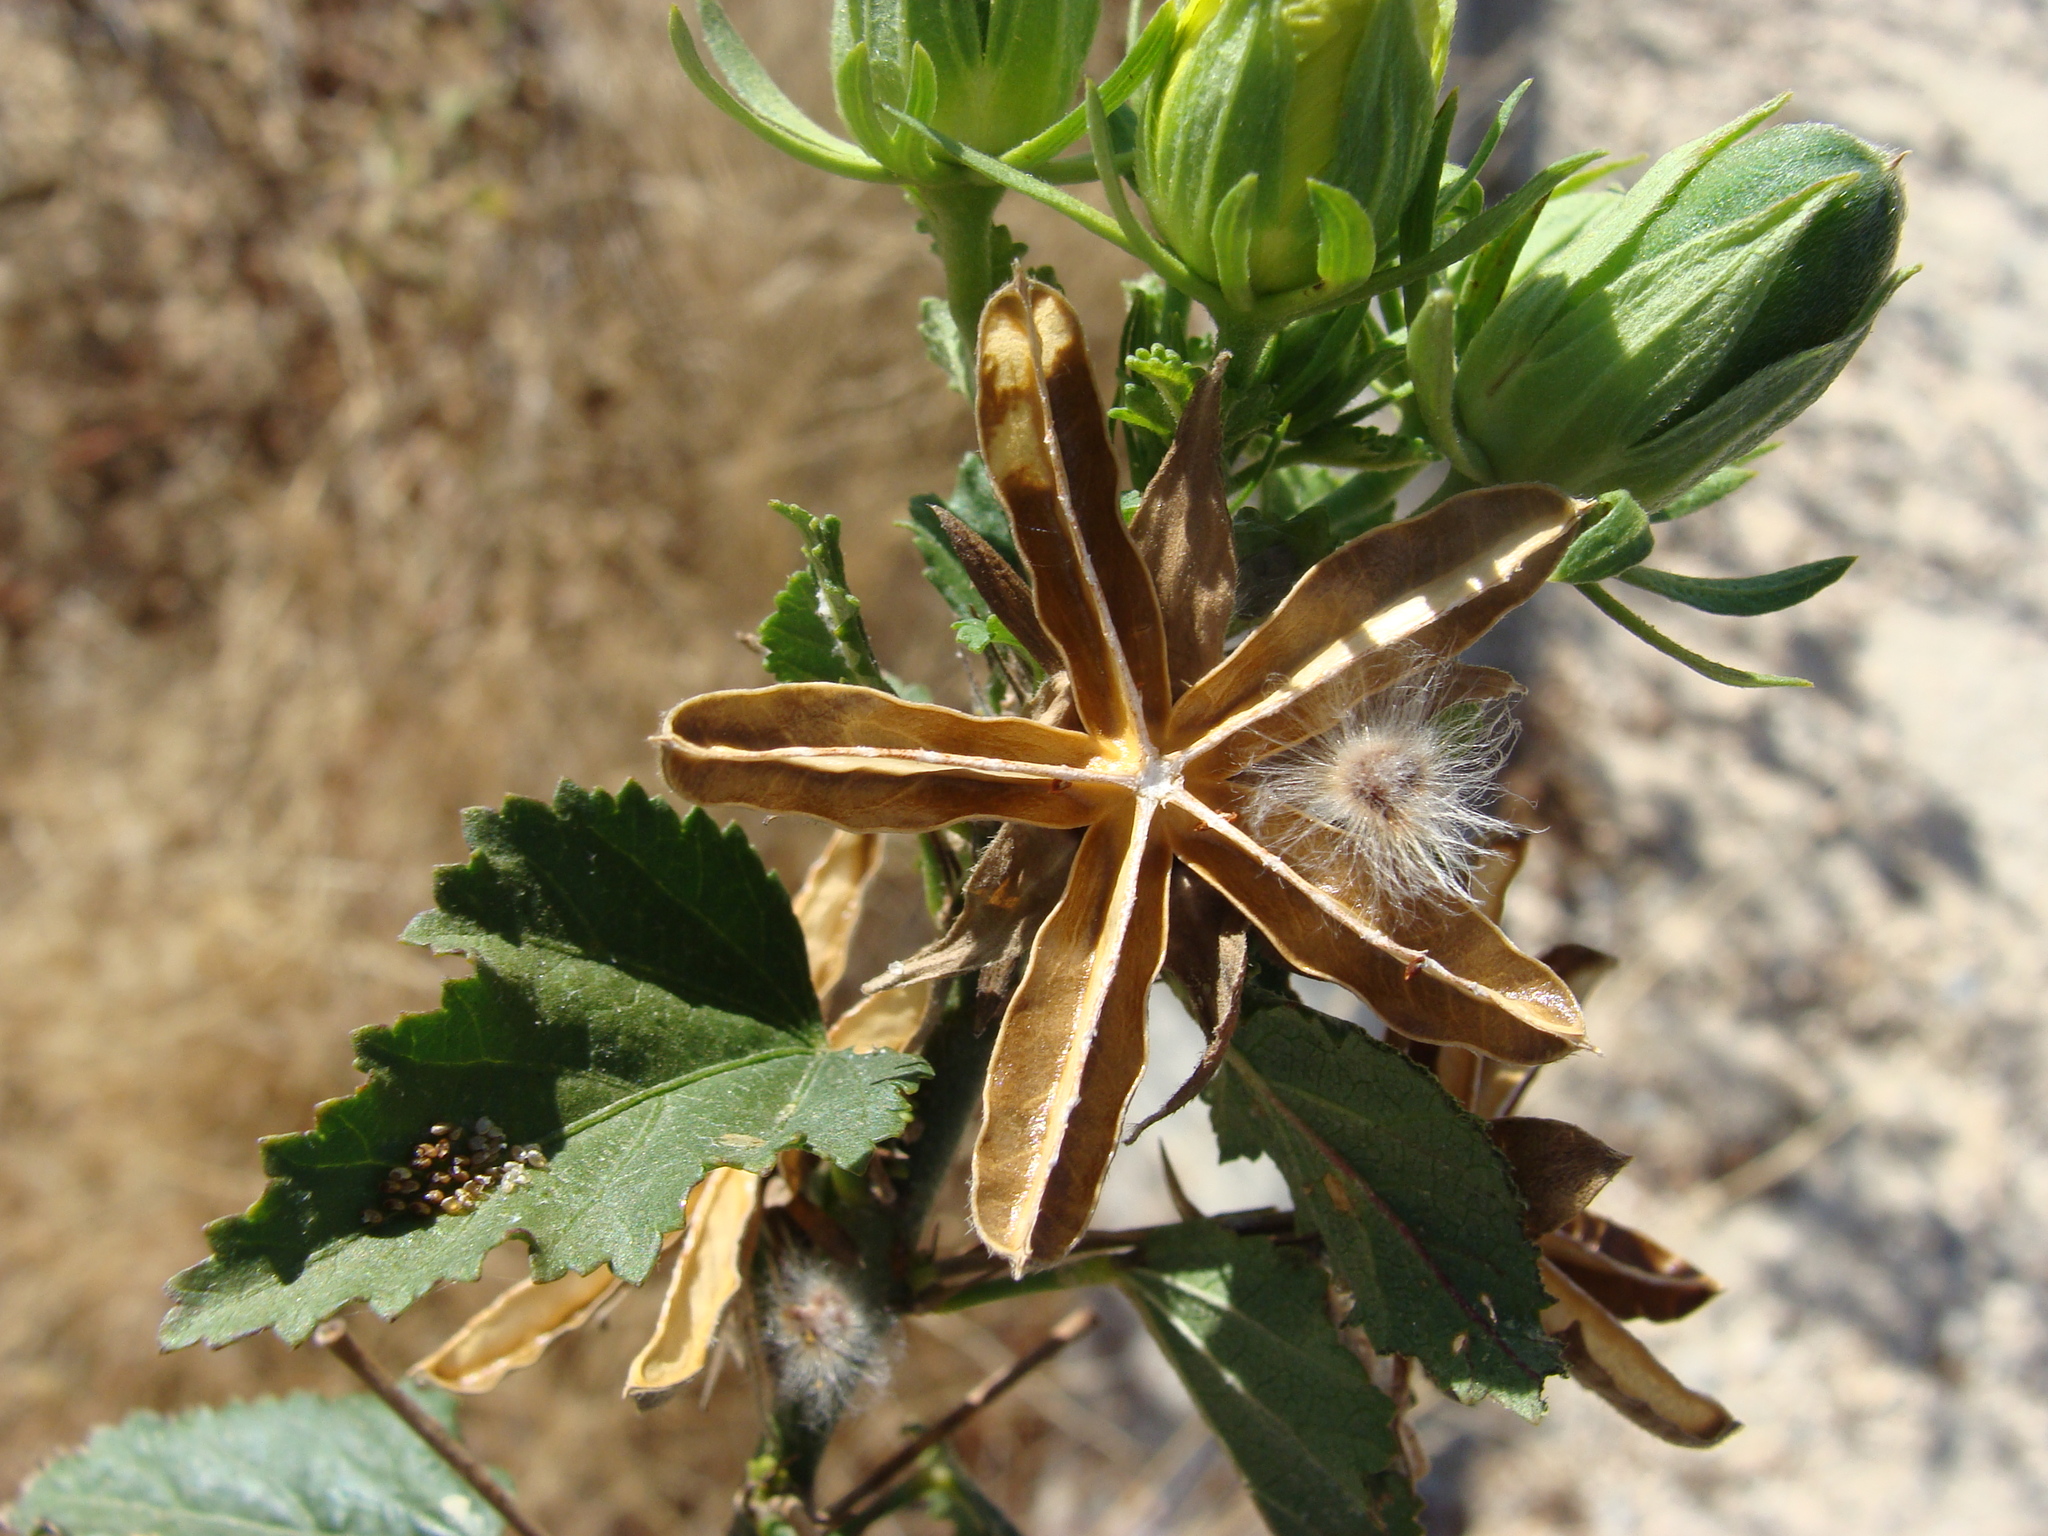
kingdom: Plantae
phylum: Tracheophyta
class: Magnoliopsida
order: Malvales
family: Malvaceae
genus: Hibiscus
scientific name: Hibiscus ribifolius
